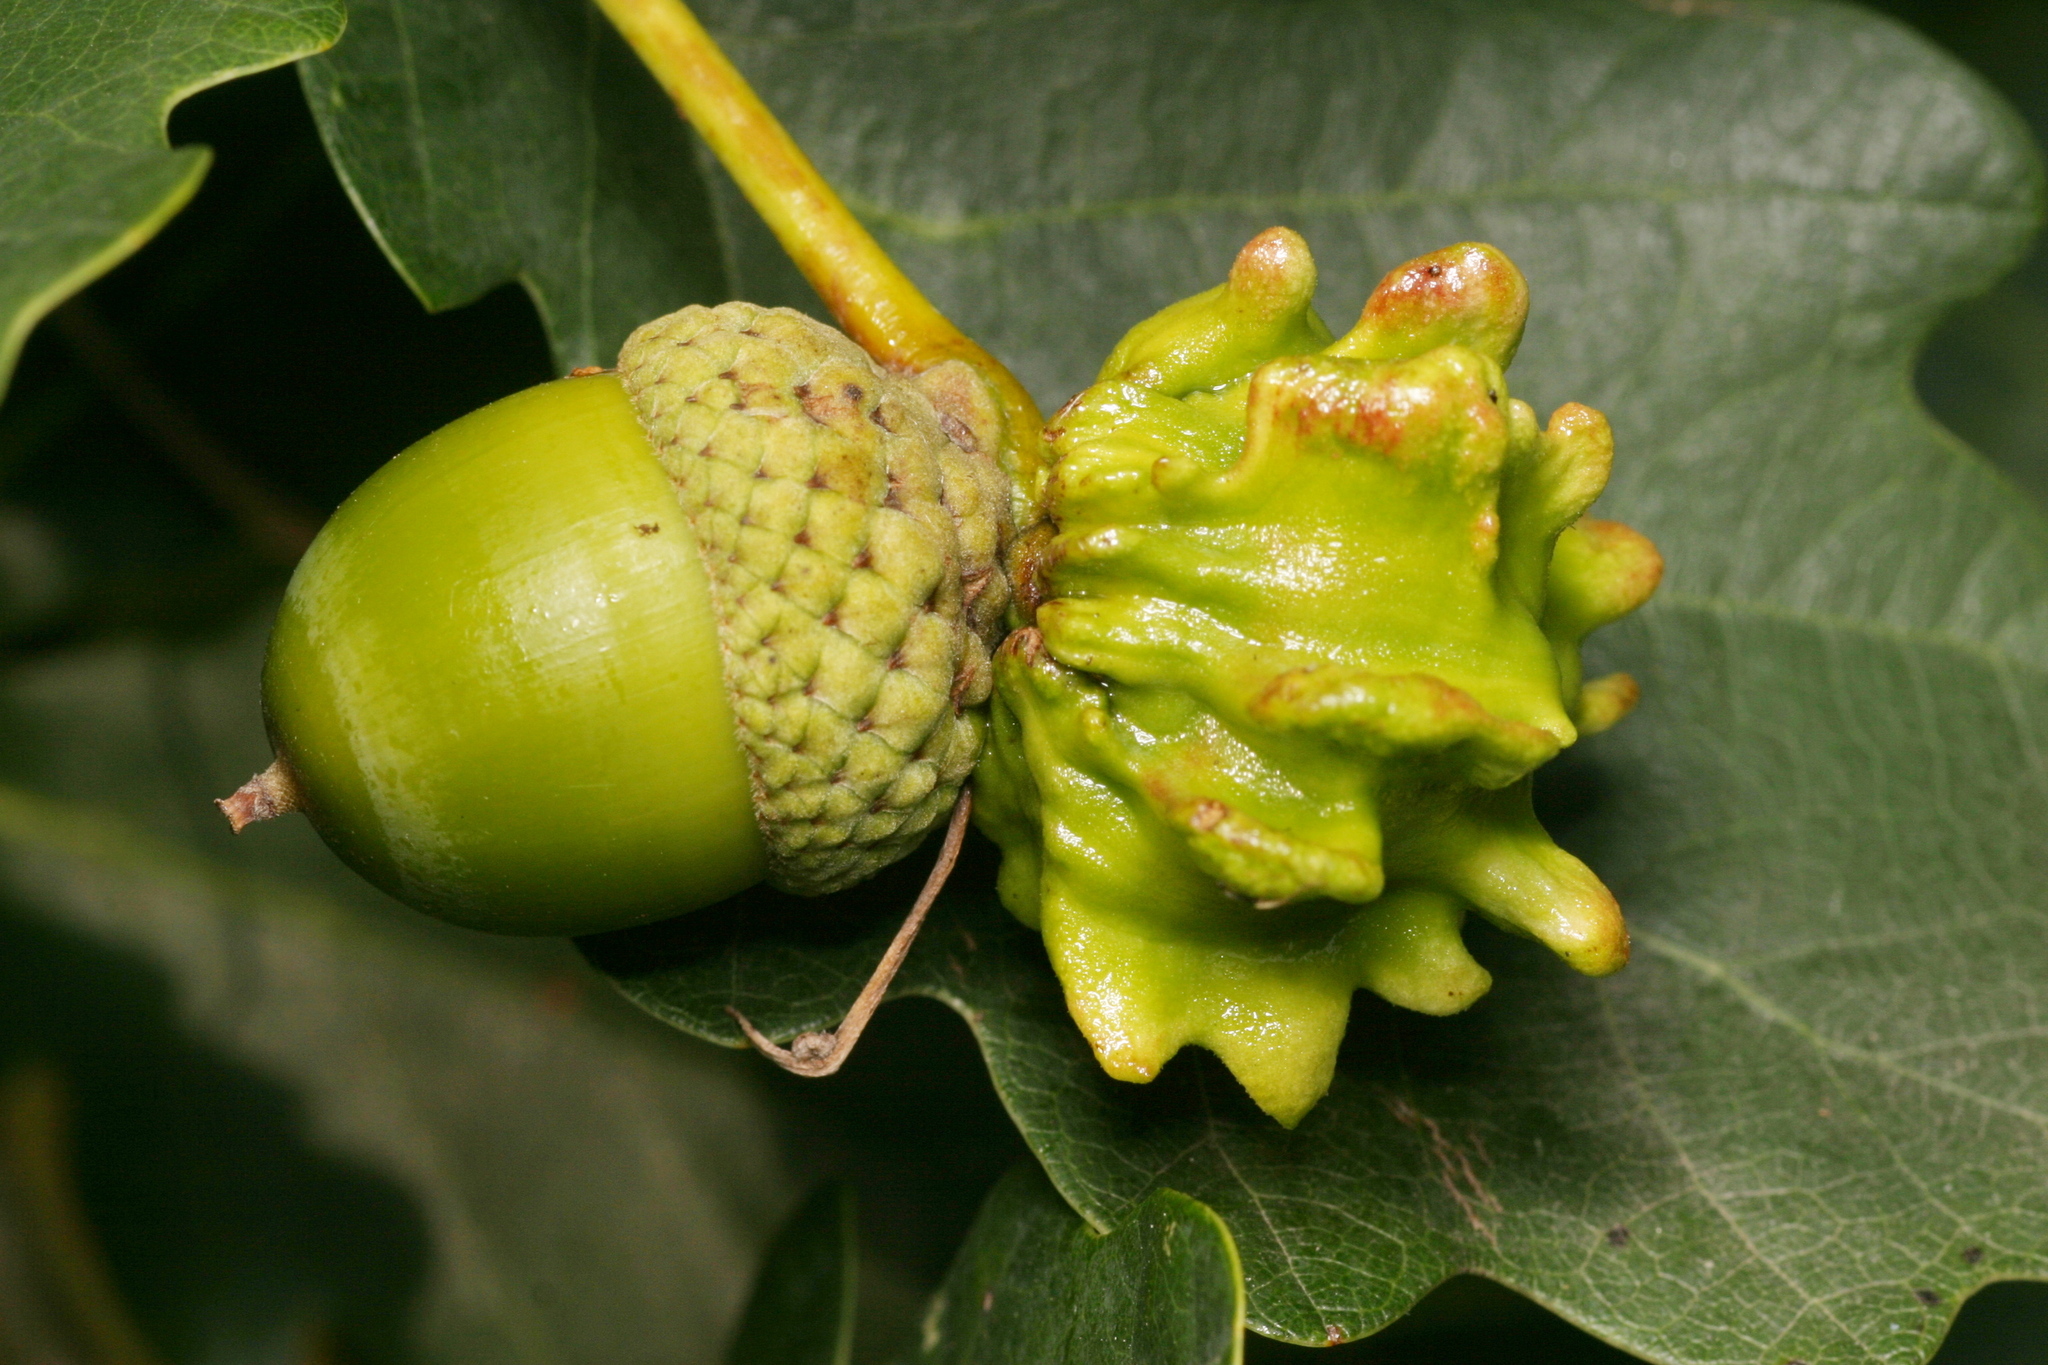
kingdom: Animalia
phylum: Arthropoda
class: Insecta
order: Hymenoptera
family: Cynipidae
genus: Andricus
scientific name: Andricus quercuscalicis
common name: Knopper gall
